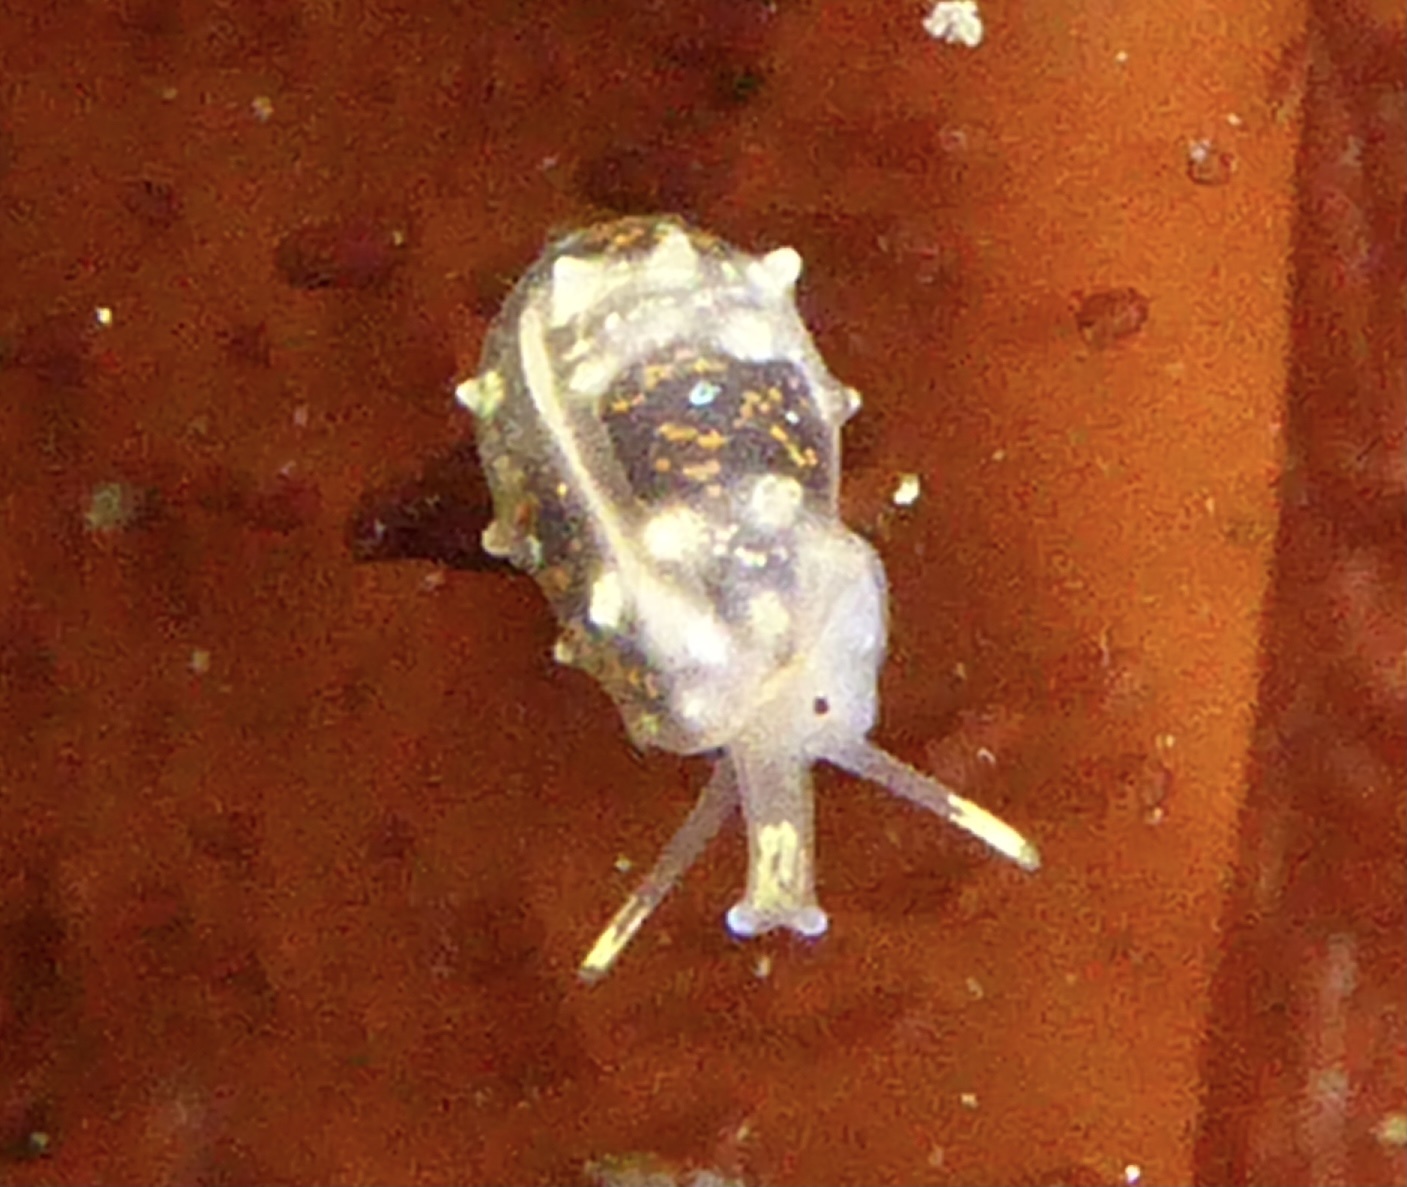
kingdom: Animalia
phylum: Mollusca
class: Gastropoda
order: Neogastropoda
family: Granulinidae
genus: Granulina
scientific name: Granulina margaritula
